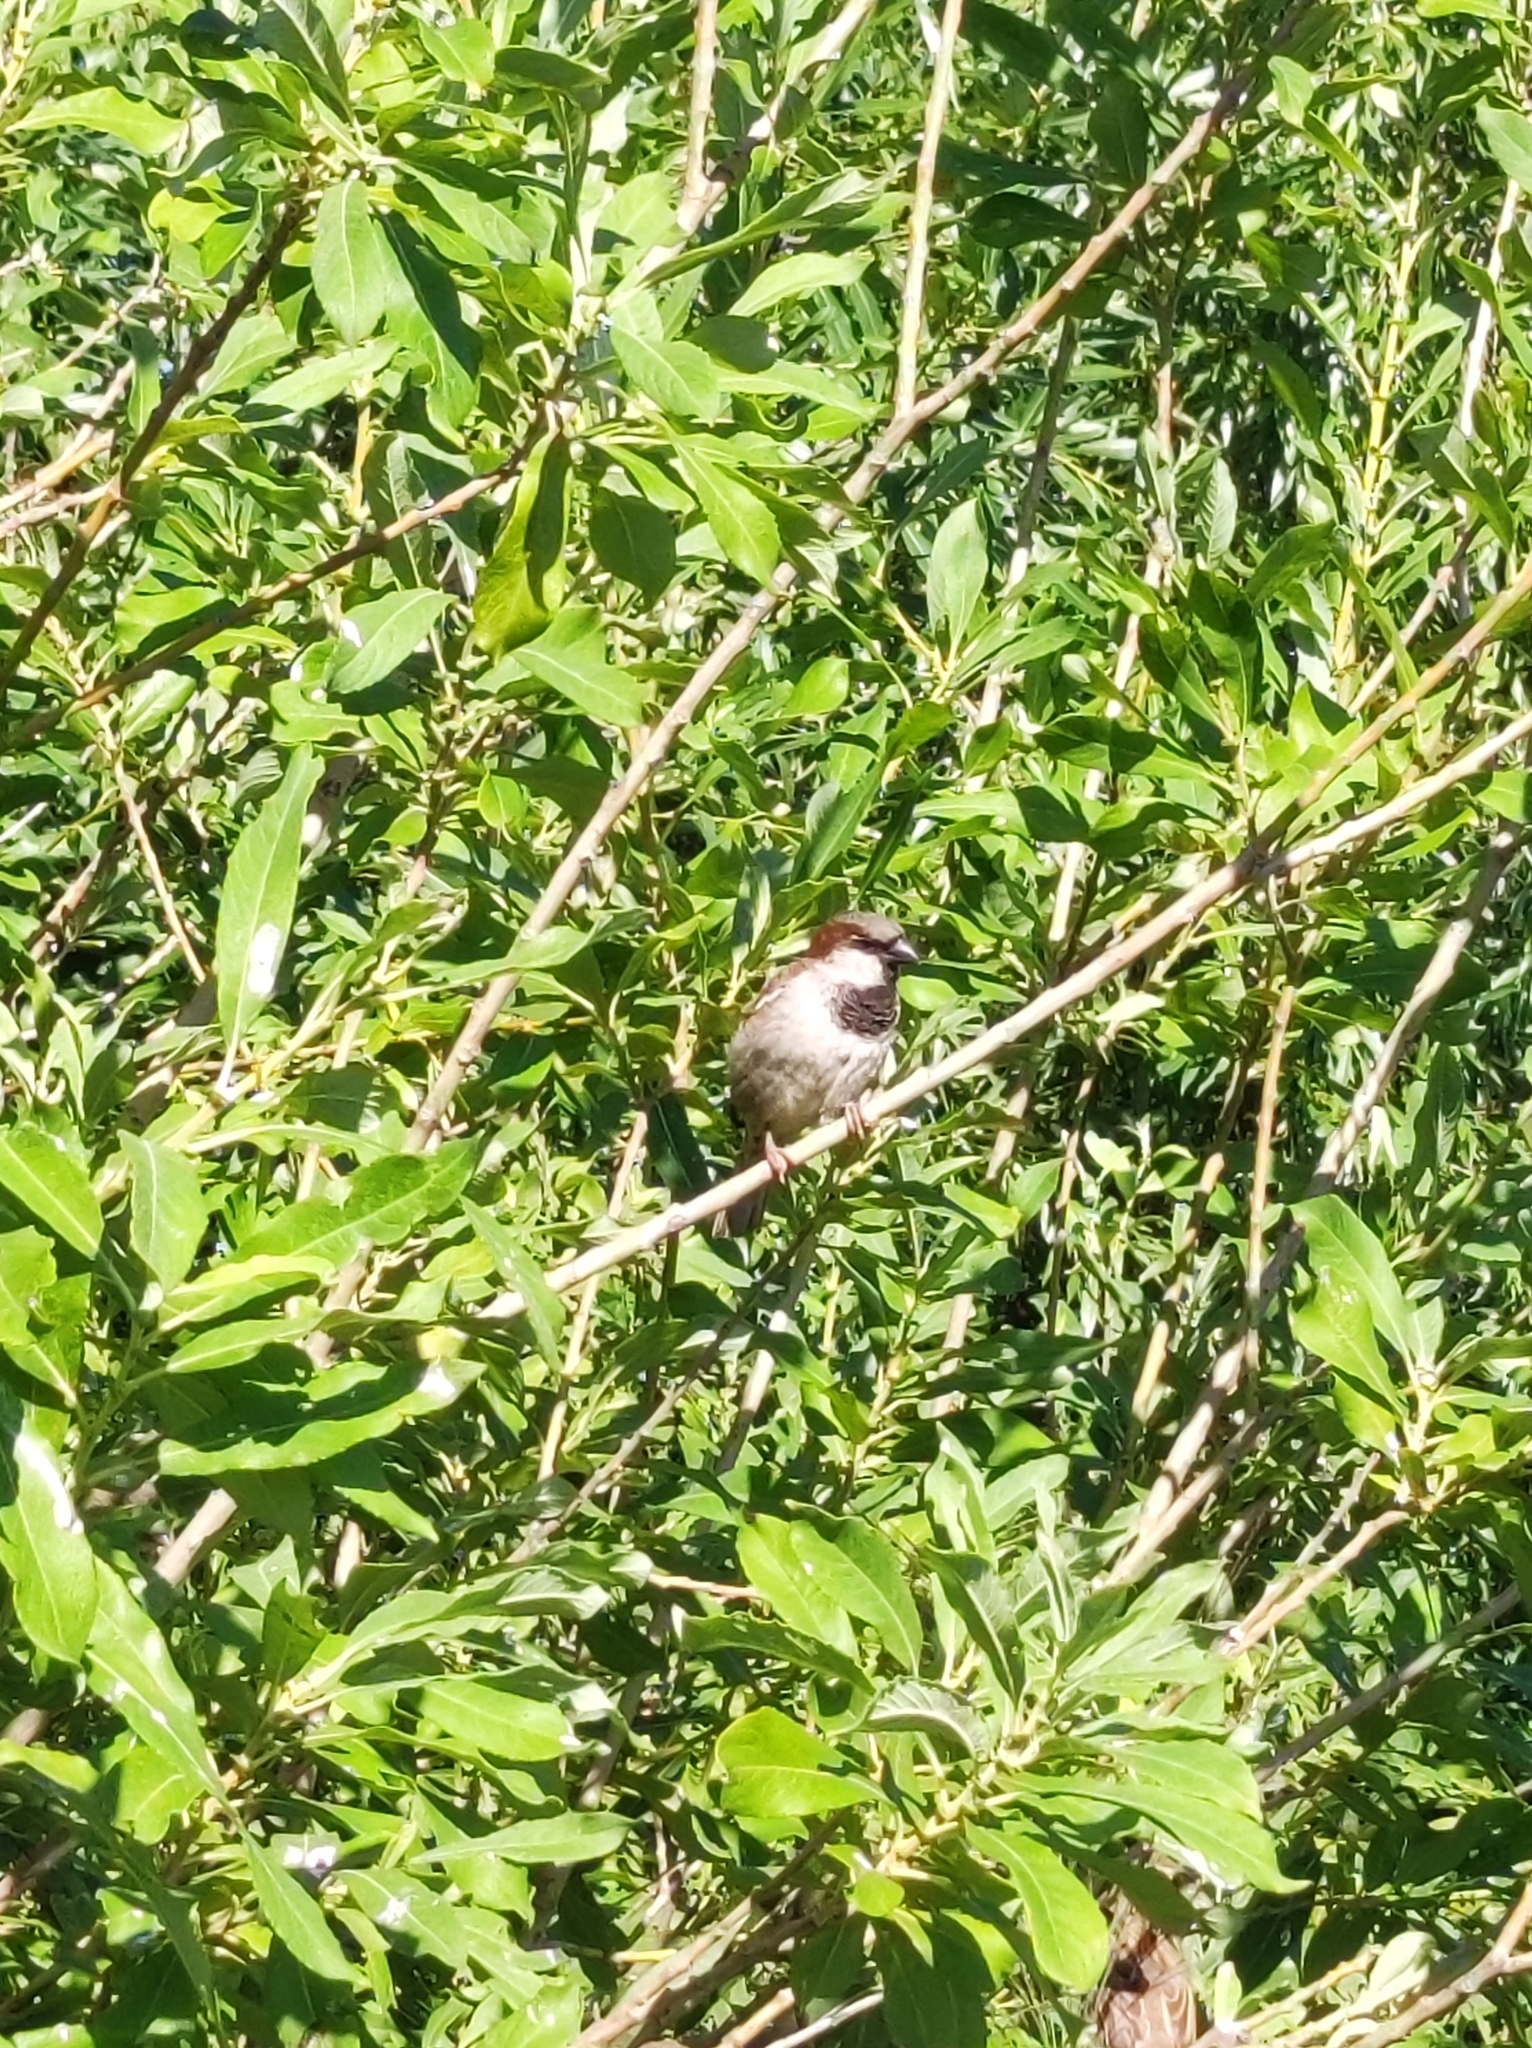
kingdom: Animalia
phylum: Chordata
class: Aves
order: Passeriformes
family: Passeridae
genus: Passer
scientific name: Passer domesticus
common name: House sparrow
